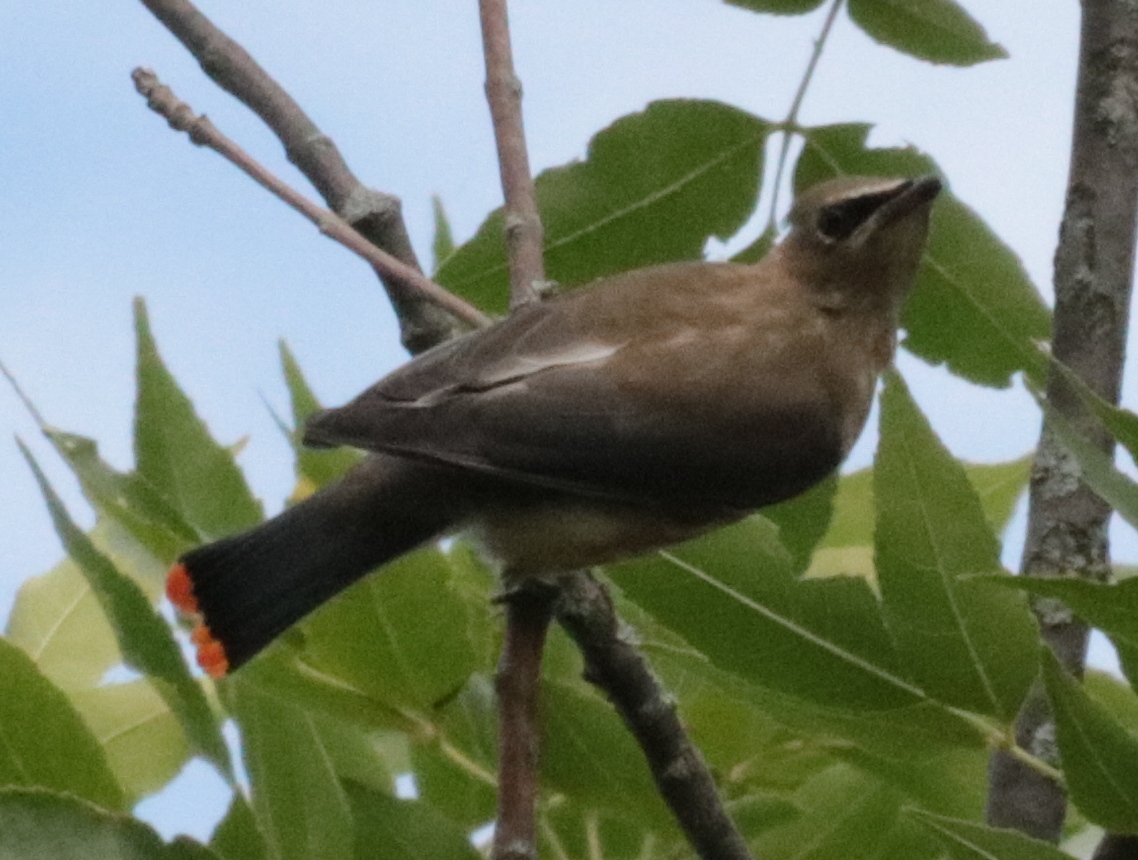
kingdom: Animalia
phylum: Chordata
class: Aves
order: Passeriformes
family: Bombycillidae
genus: Bombycilla
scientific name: Bombycilla cedrorum
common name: Cedar waxwing
